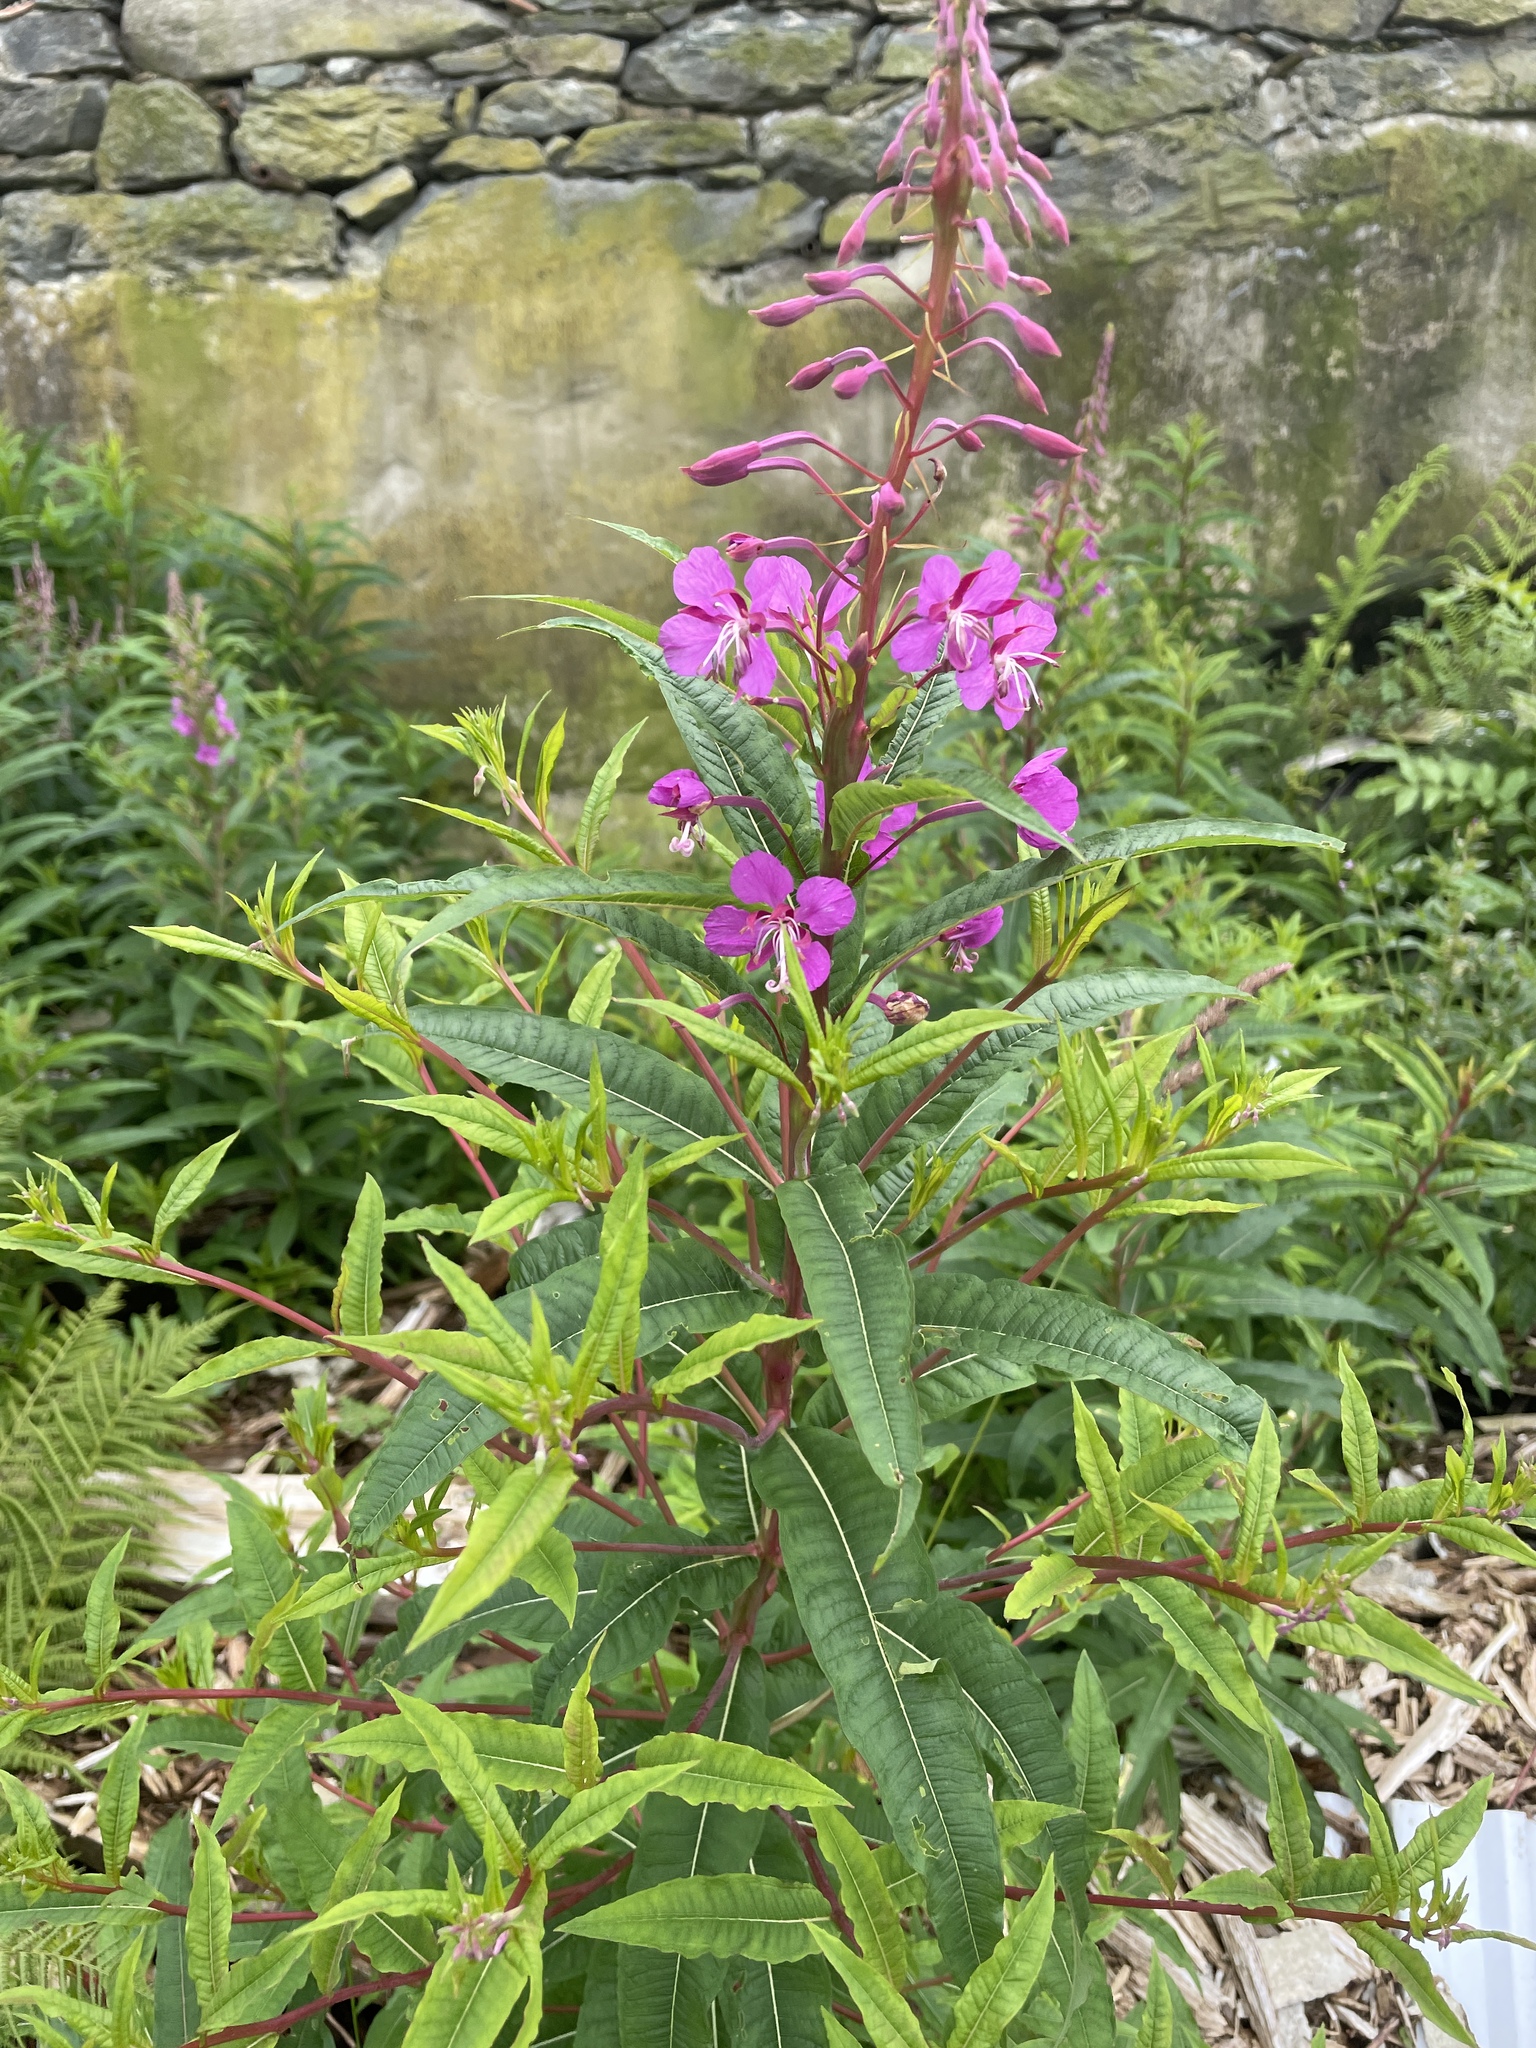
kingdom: Plantae
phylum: Tracheophyta
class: Magnoliopsida
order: Myrtales
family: Onagraceae
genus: Chamaenerion
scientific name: Chamaenerion angustifolium
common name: Fireweed
